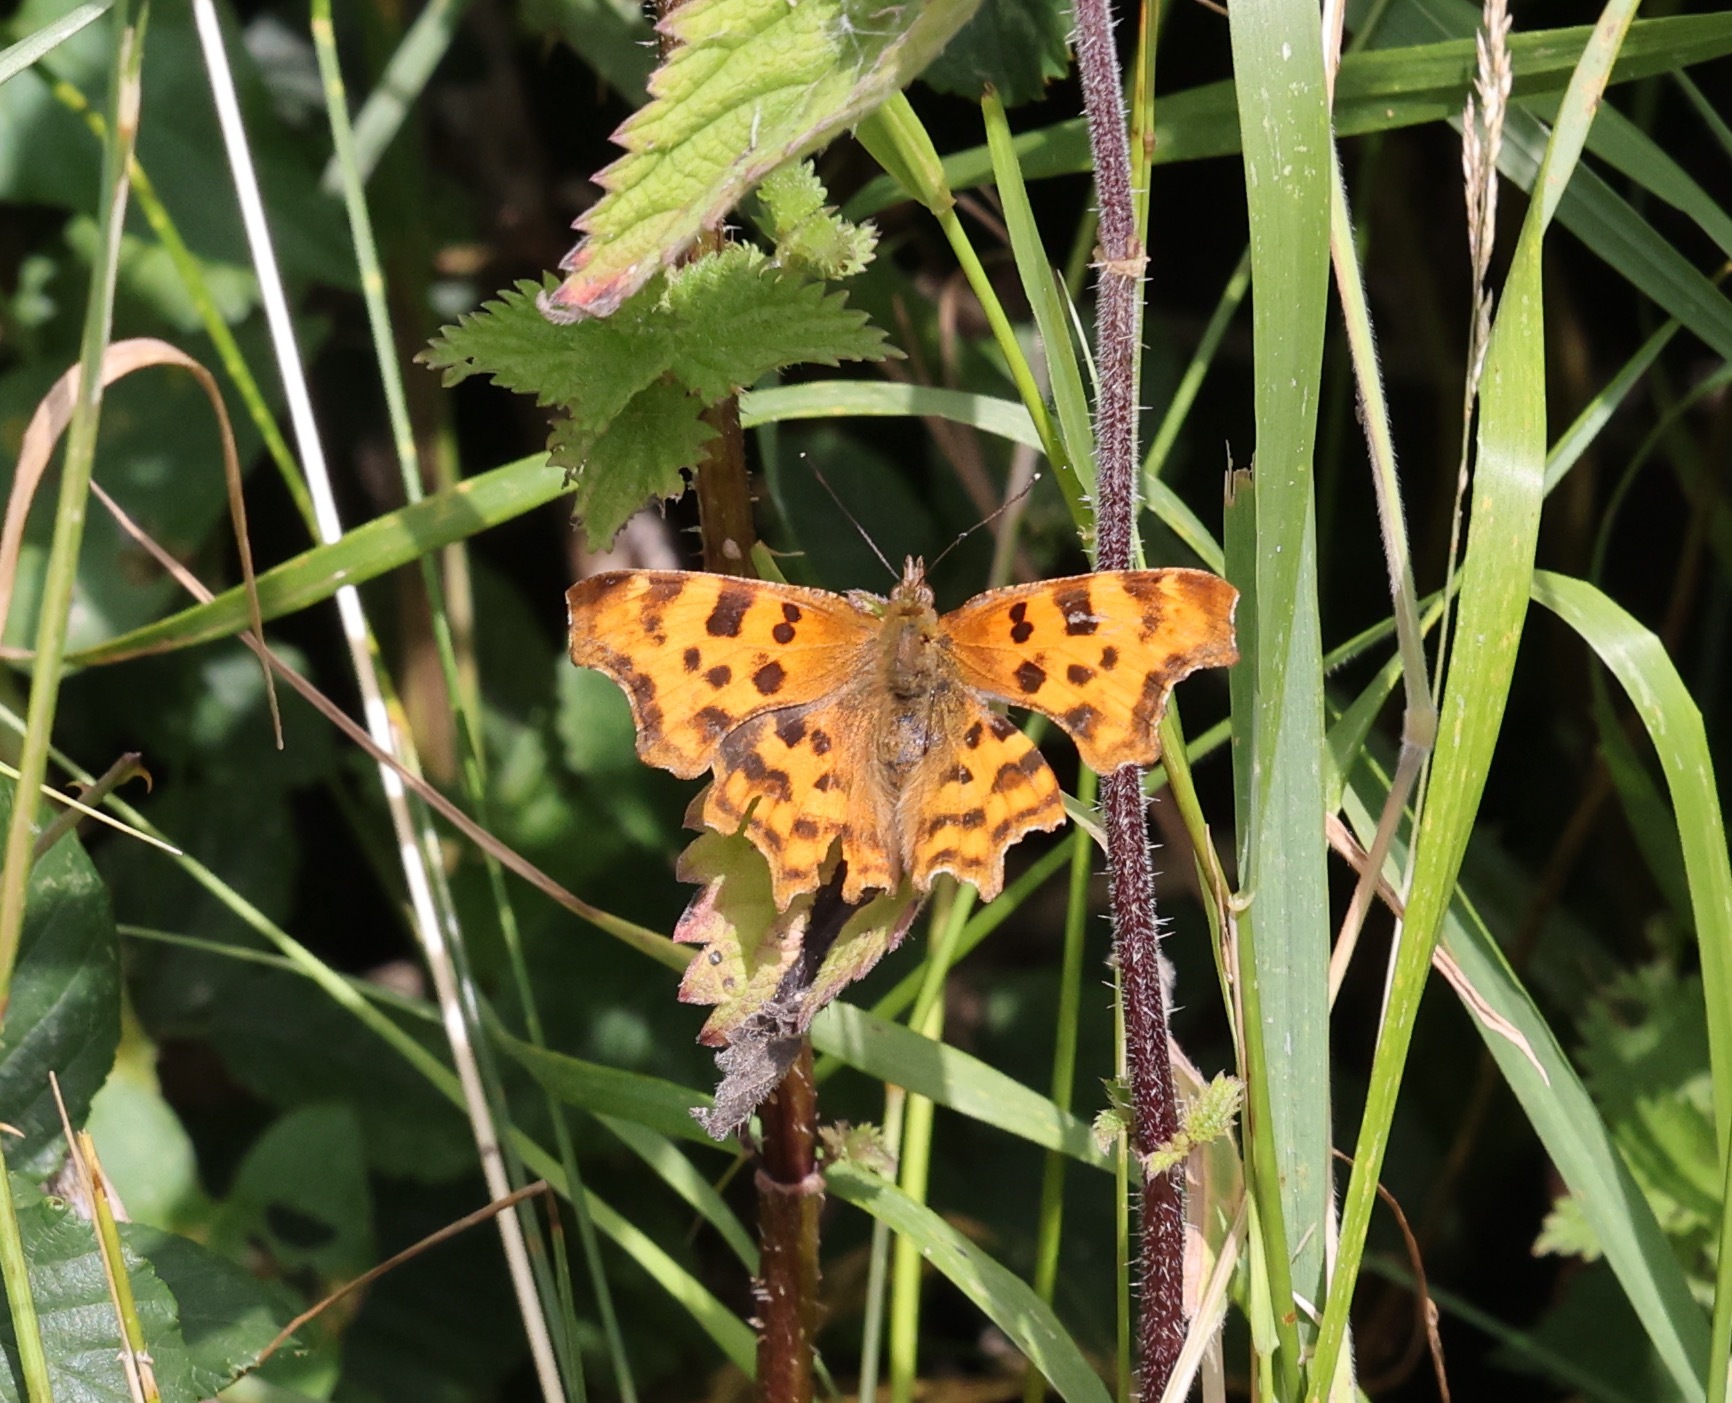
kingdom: Animalia
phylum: Arthropoda
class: Insecta
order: Lepidoptera
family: Nymphalidae
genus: Polygonia
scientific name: Polygonia c-album
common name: Comma
